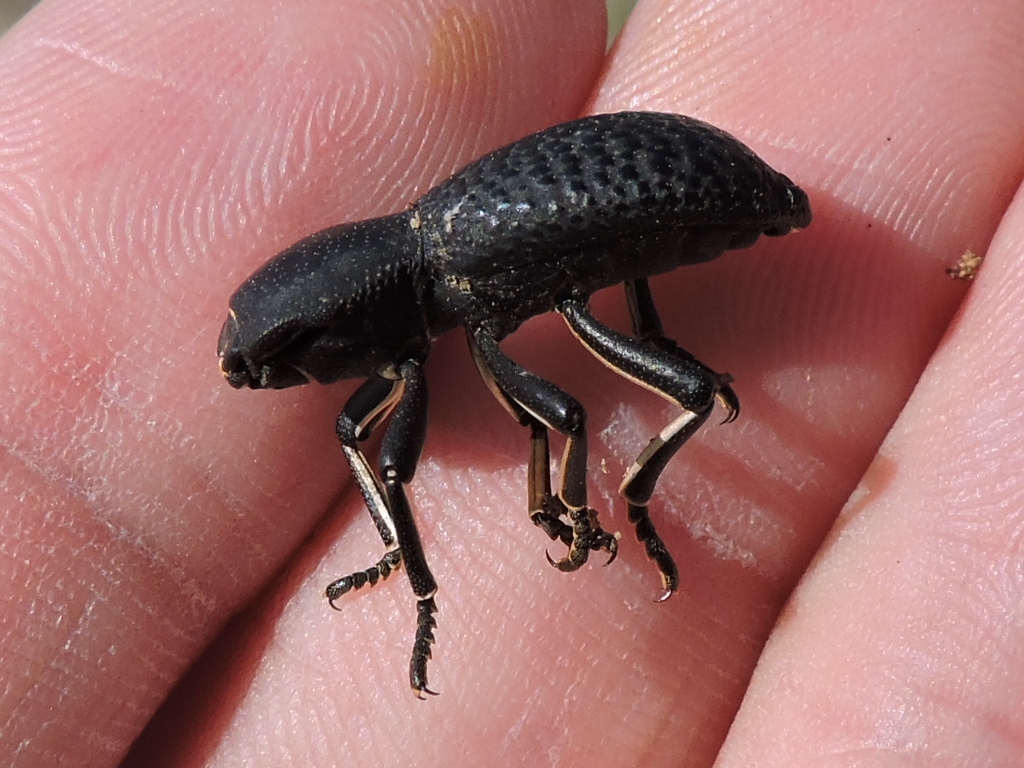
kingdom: Animalia
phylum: Arthropoda
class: Insecta
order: Coleoptera
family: Zopheridae
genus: Zopherus
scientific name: Zopherus concolor
